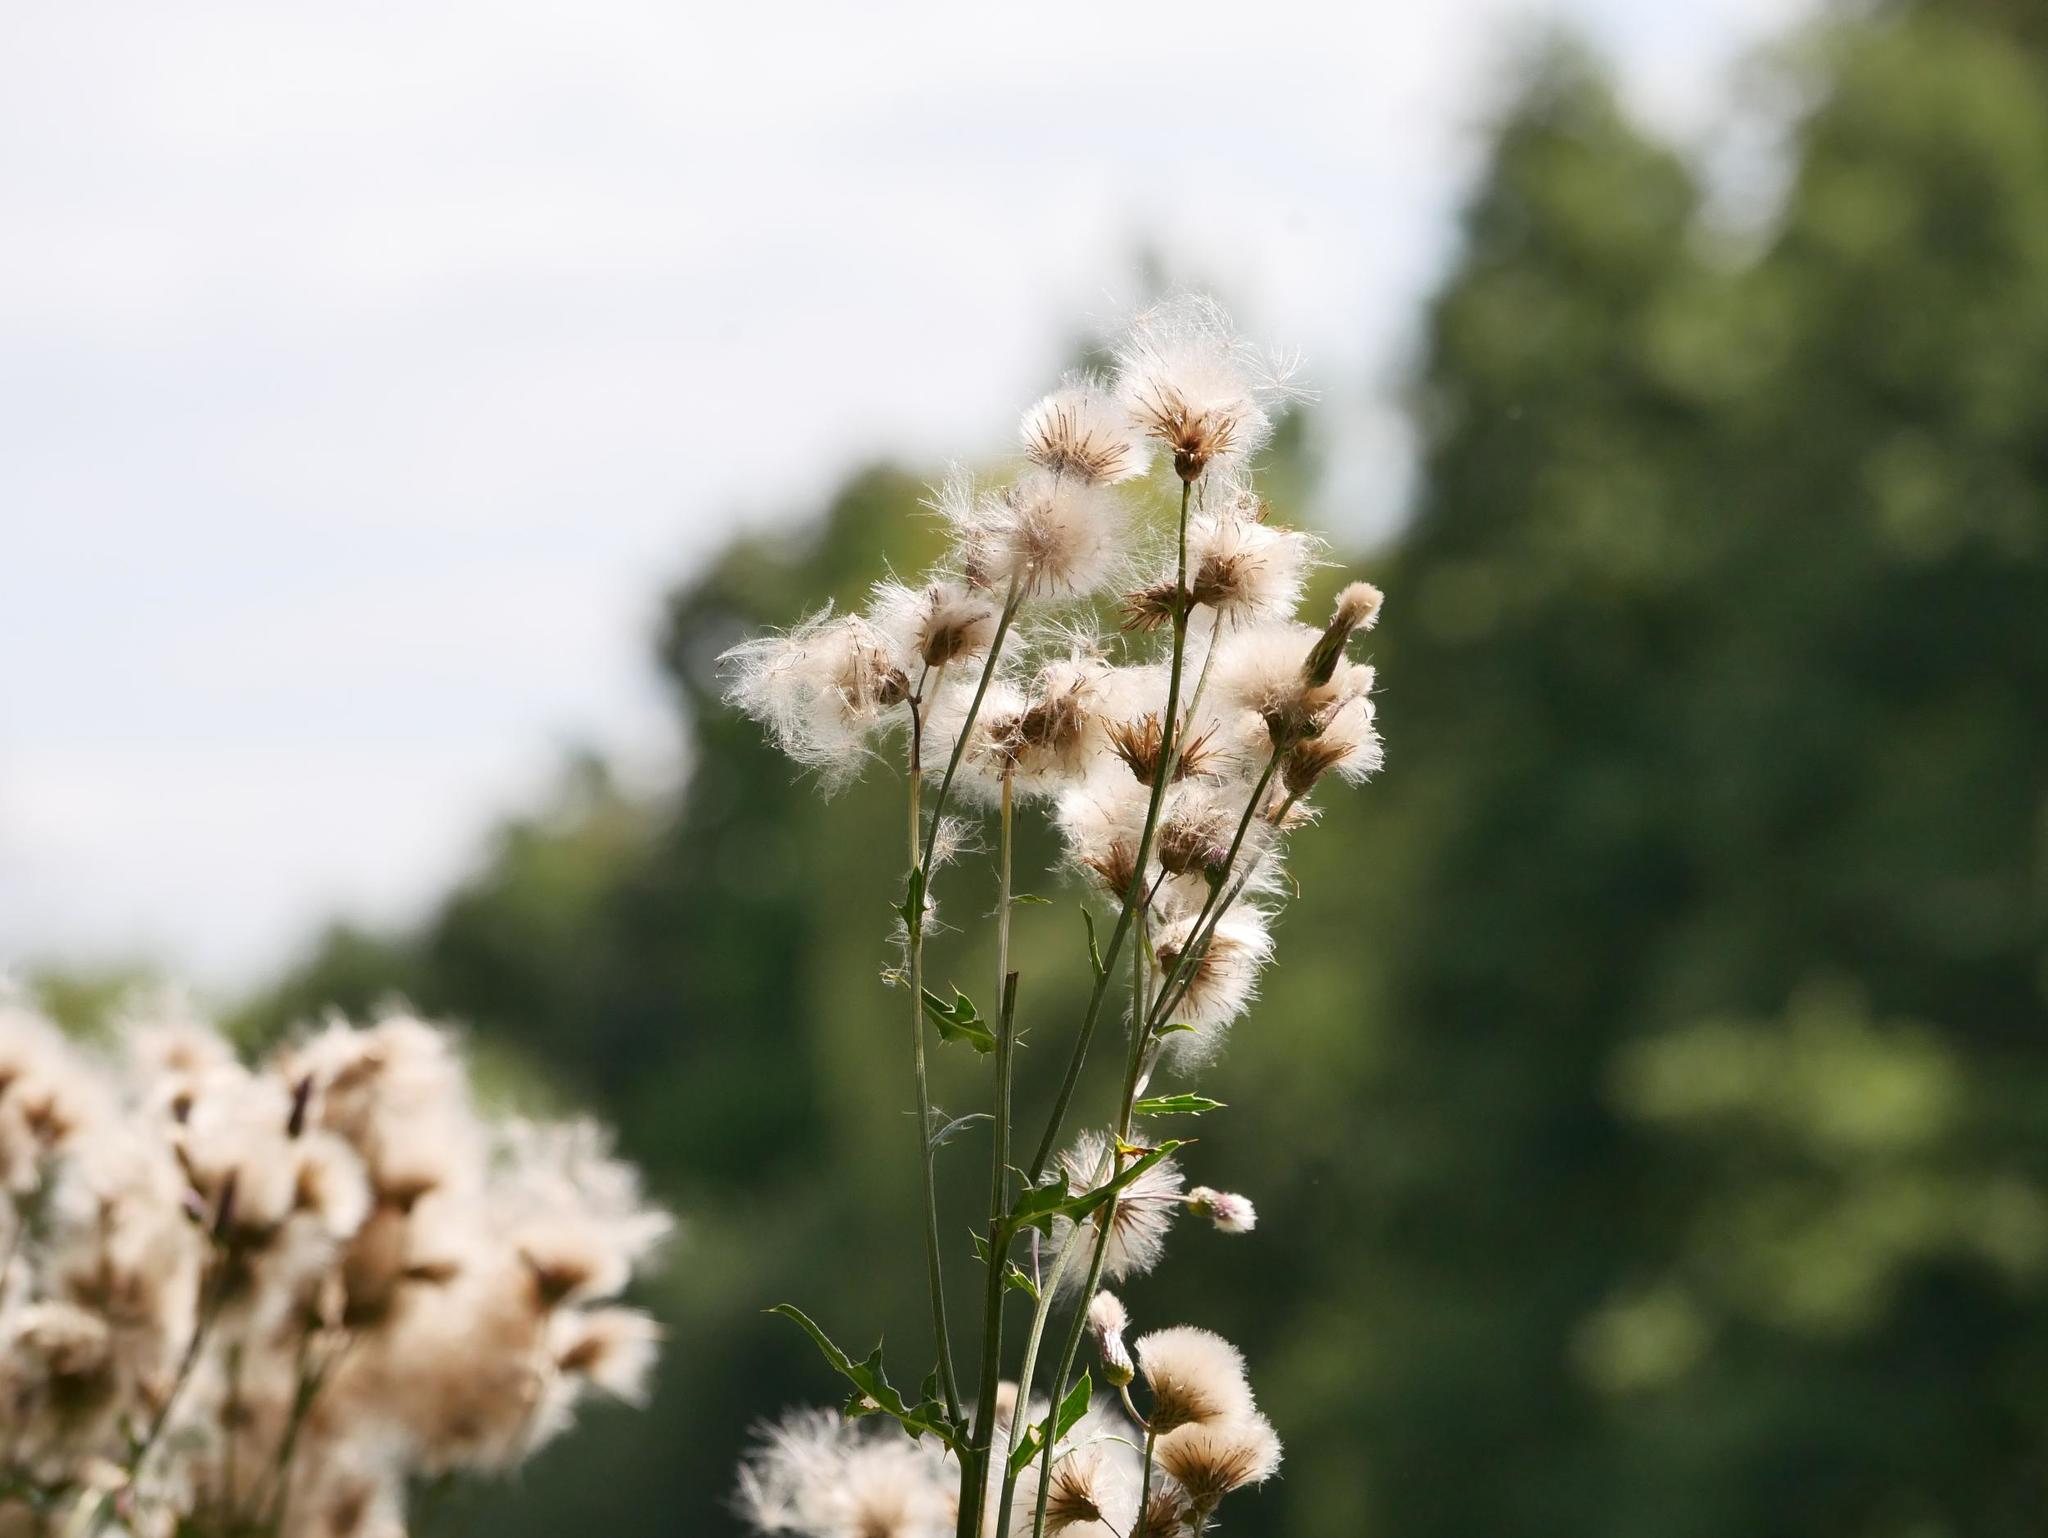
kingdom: Plantae
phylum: Tracheophyta
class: Magnoliopsida
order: Asterales
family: Asteraceae
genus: Cirsium
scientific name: Cirsium arvense
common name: Creeping thistle
